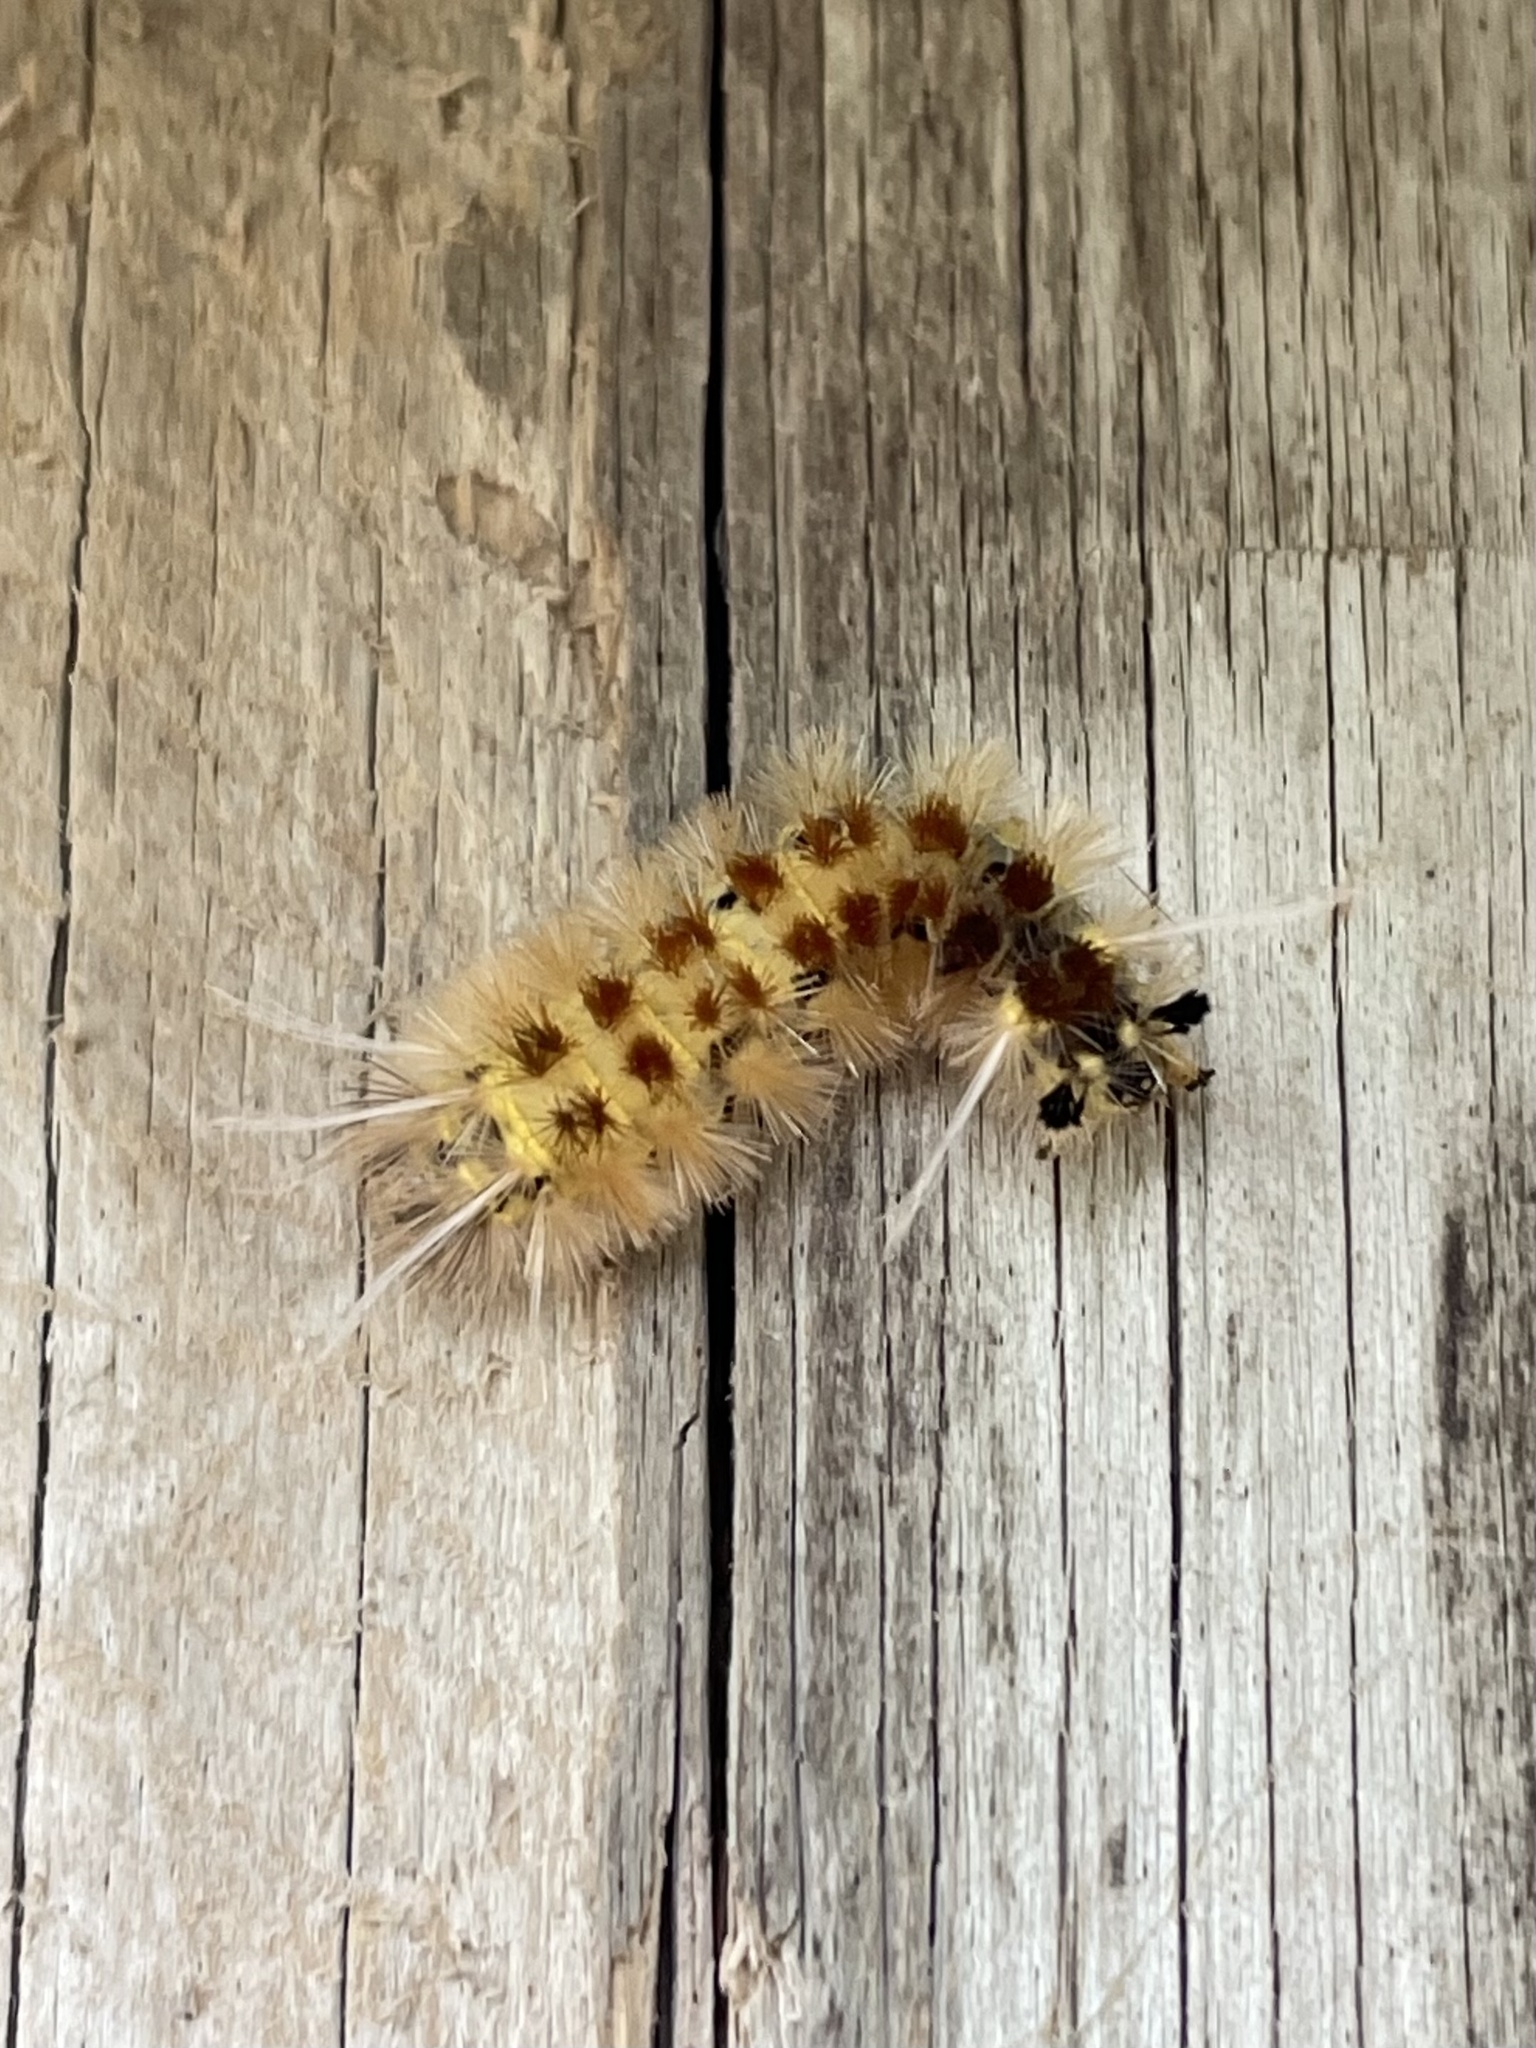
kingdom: Animalia
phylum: Arthropoda
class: Insecta
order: Lepidoptera
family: Erebidae
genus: Lophocampa
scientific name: Lophocampa annulosa
